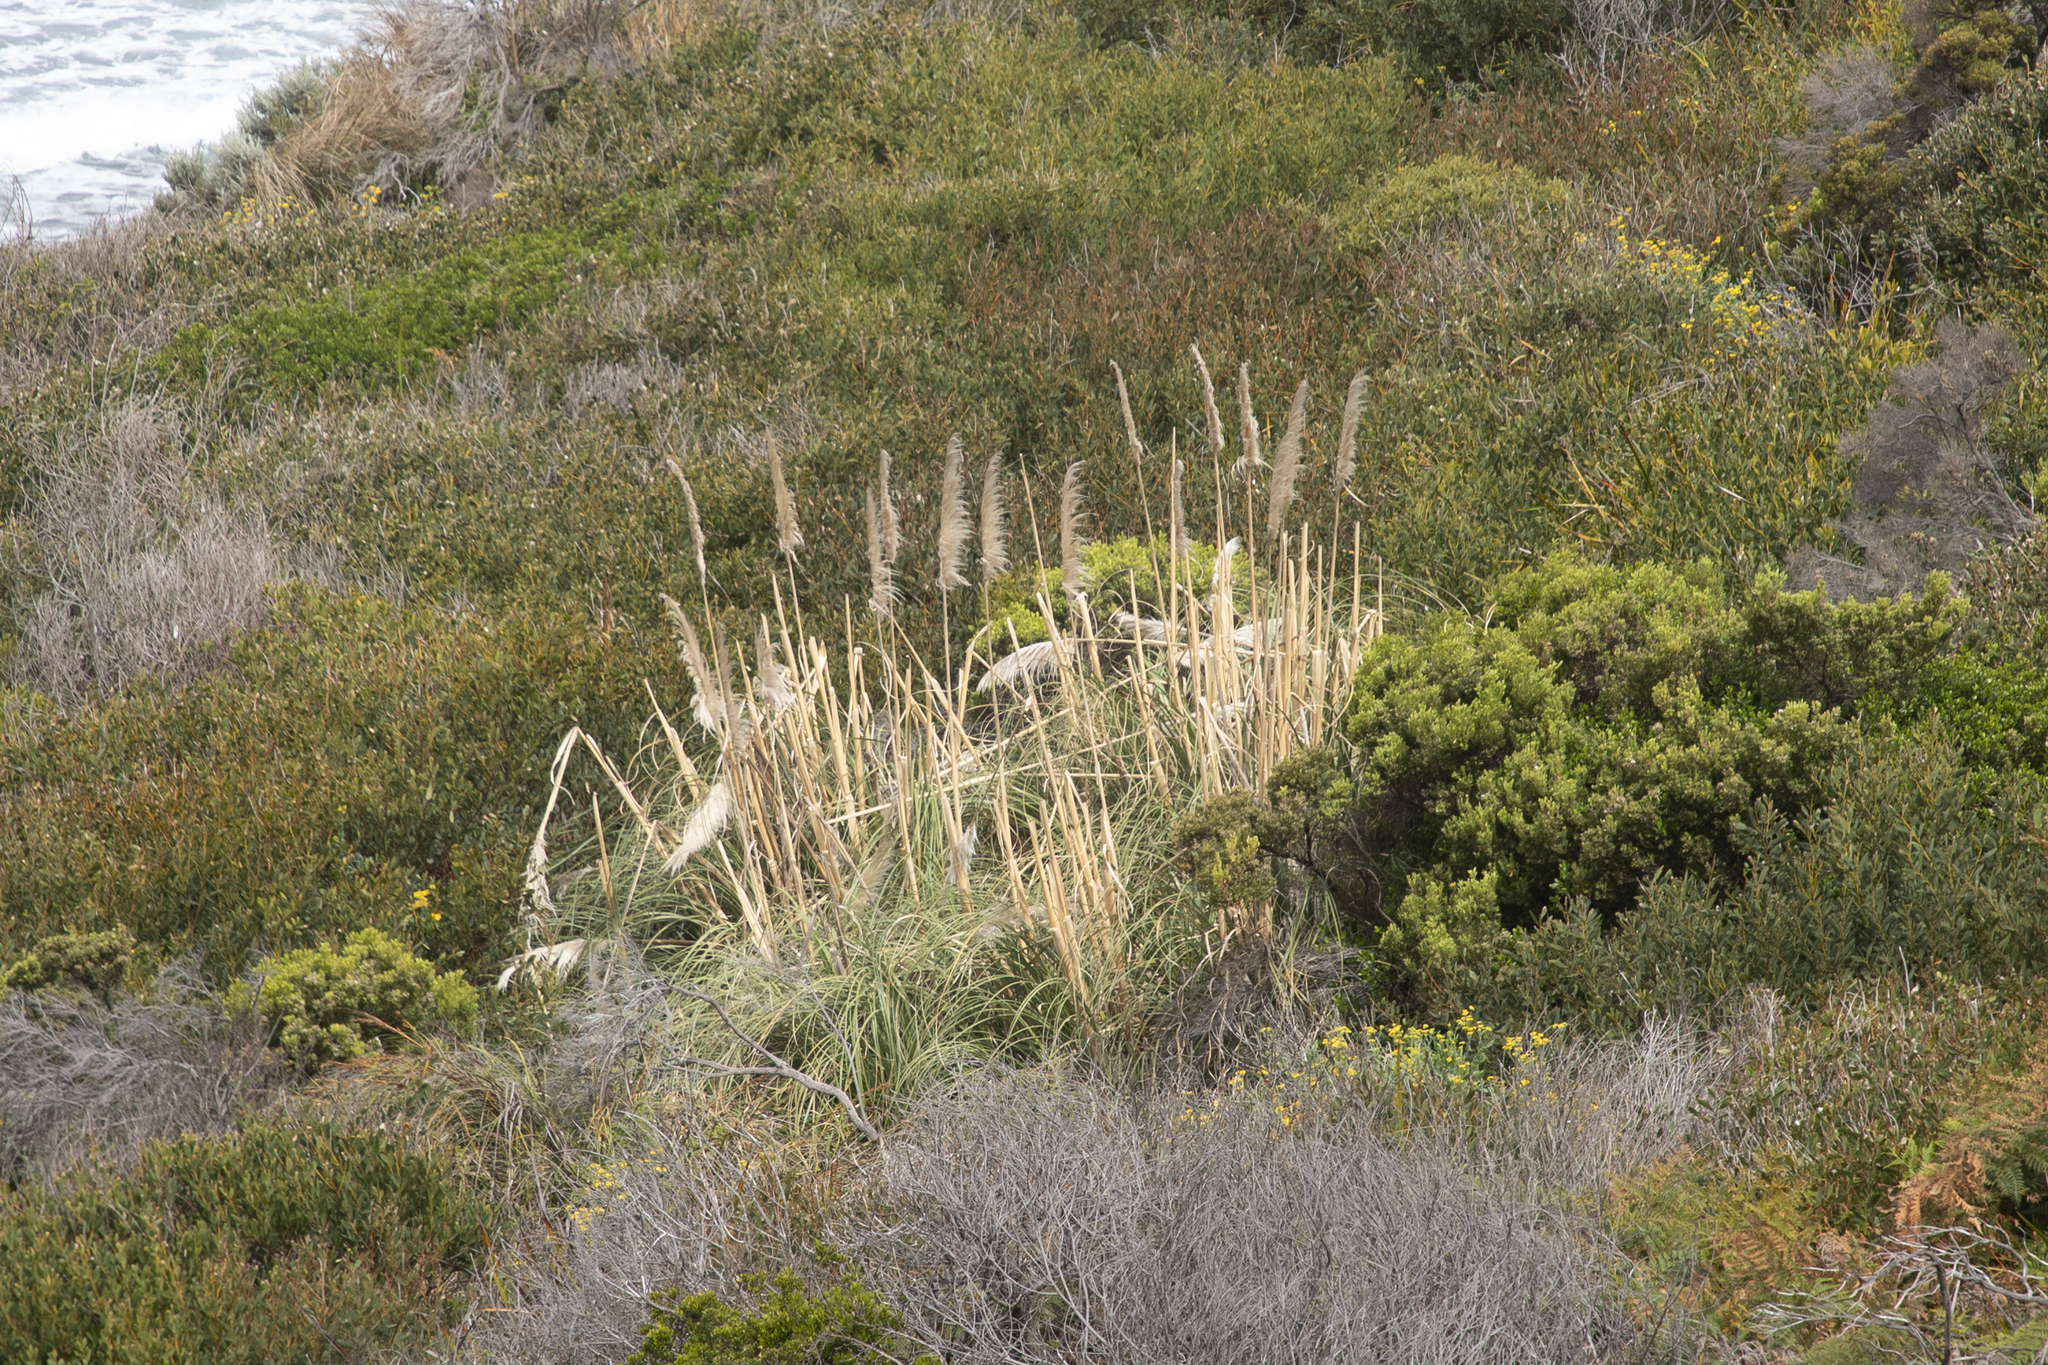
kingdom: Plantae
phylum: Tracheophyta
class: Liliopsida
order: Poales
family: Poaceae
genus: Cortaderia
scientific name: Cortaderia selloana
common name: Uruguayan pampas grass
